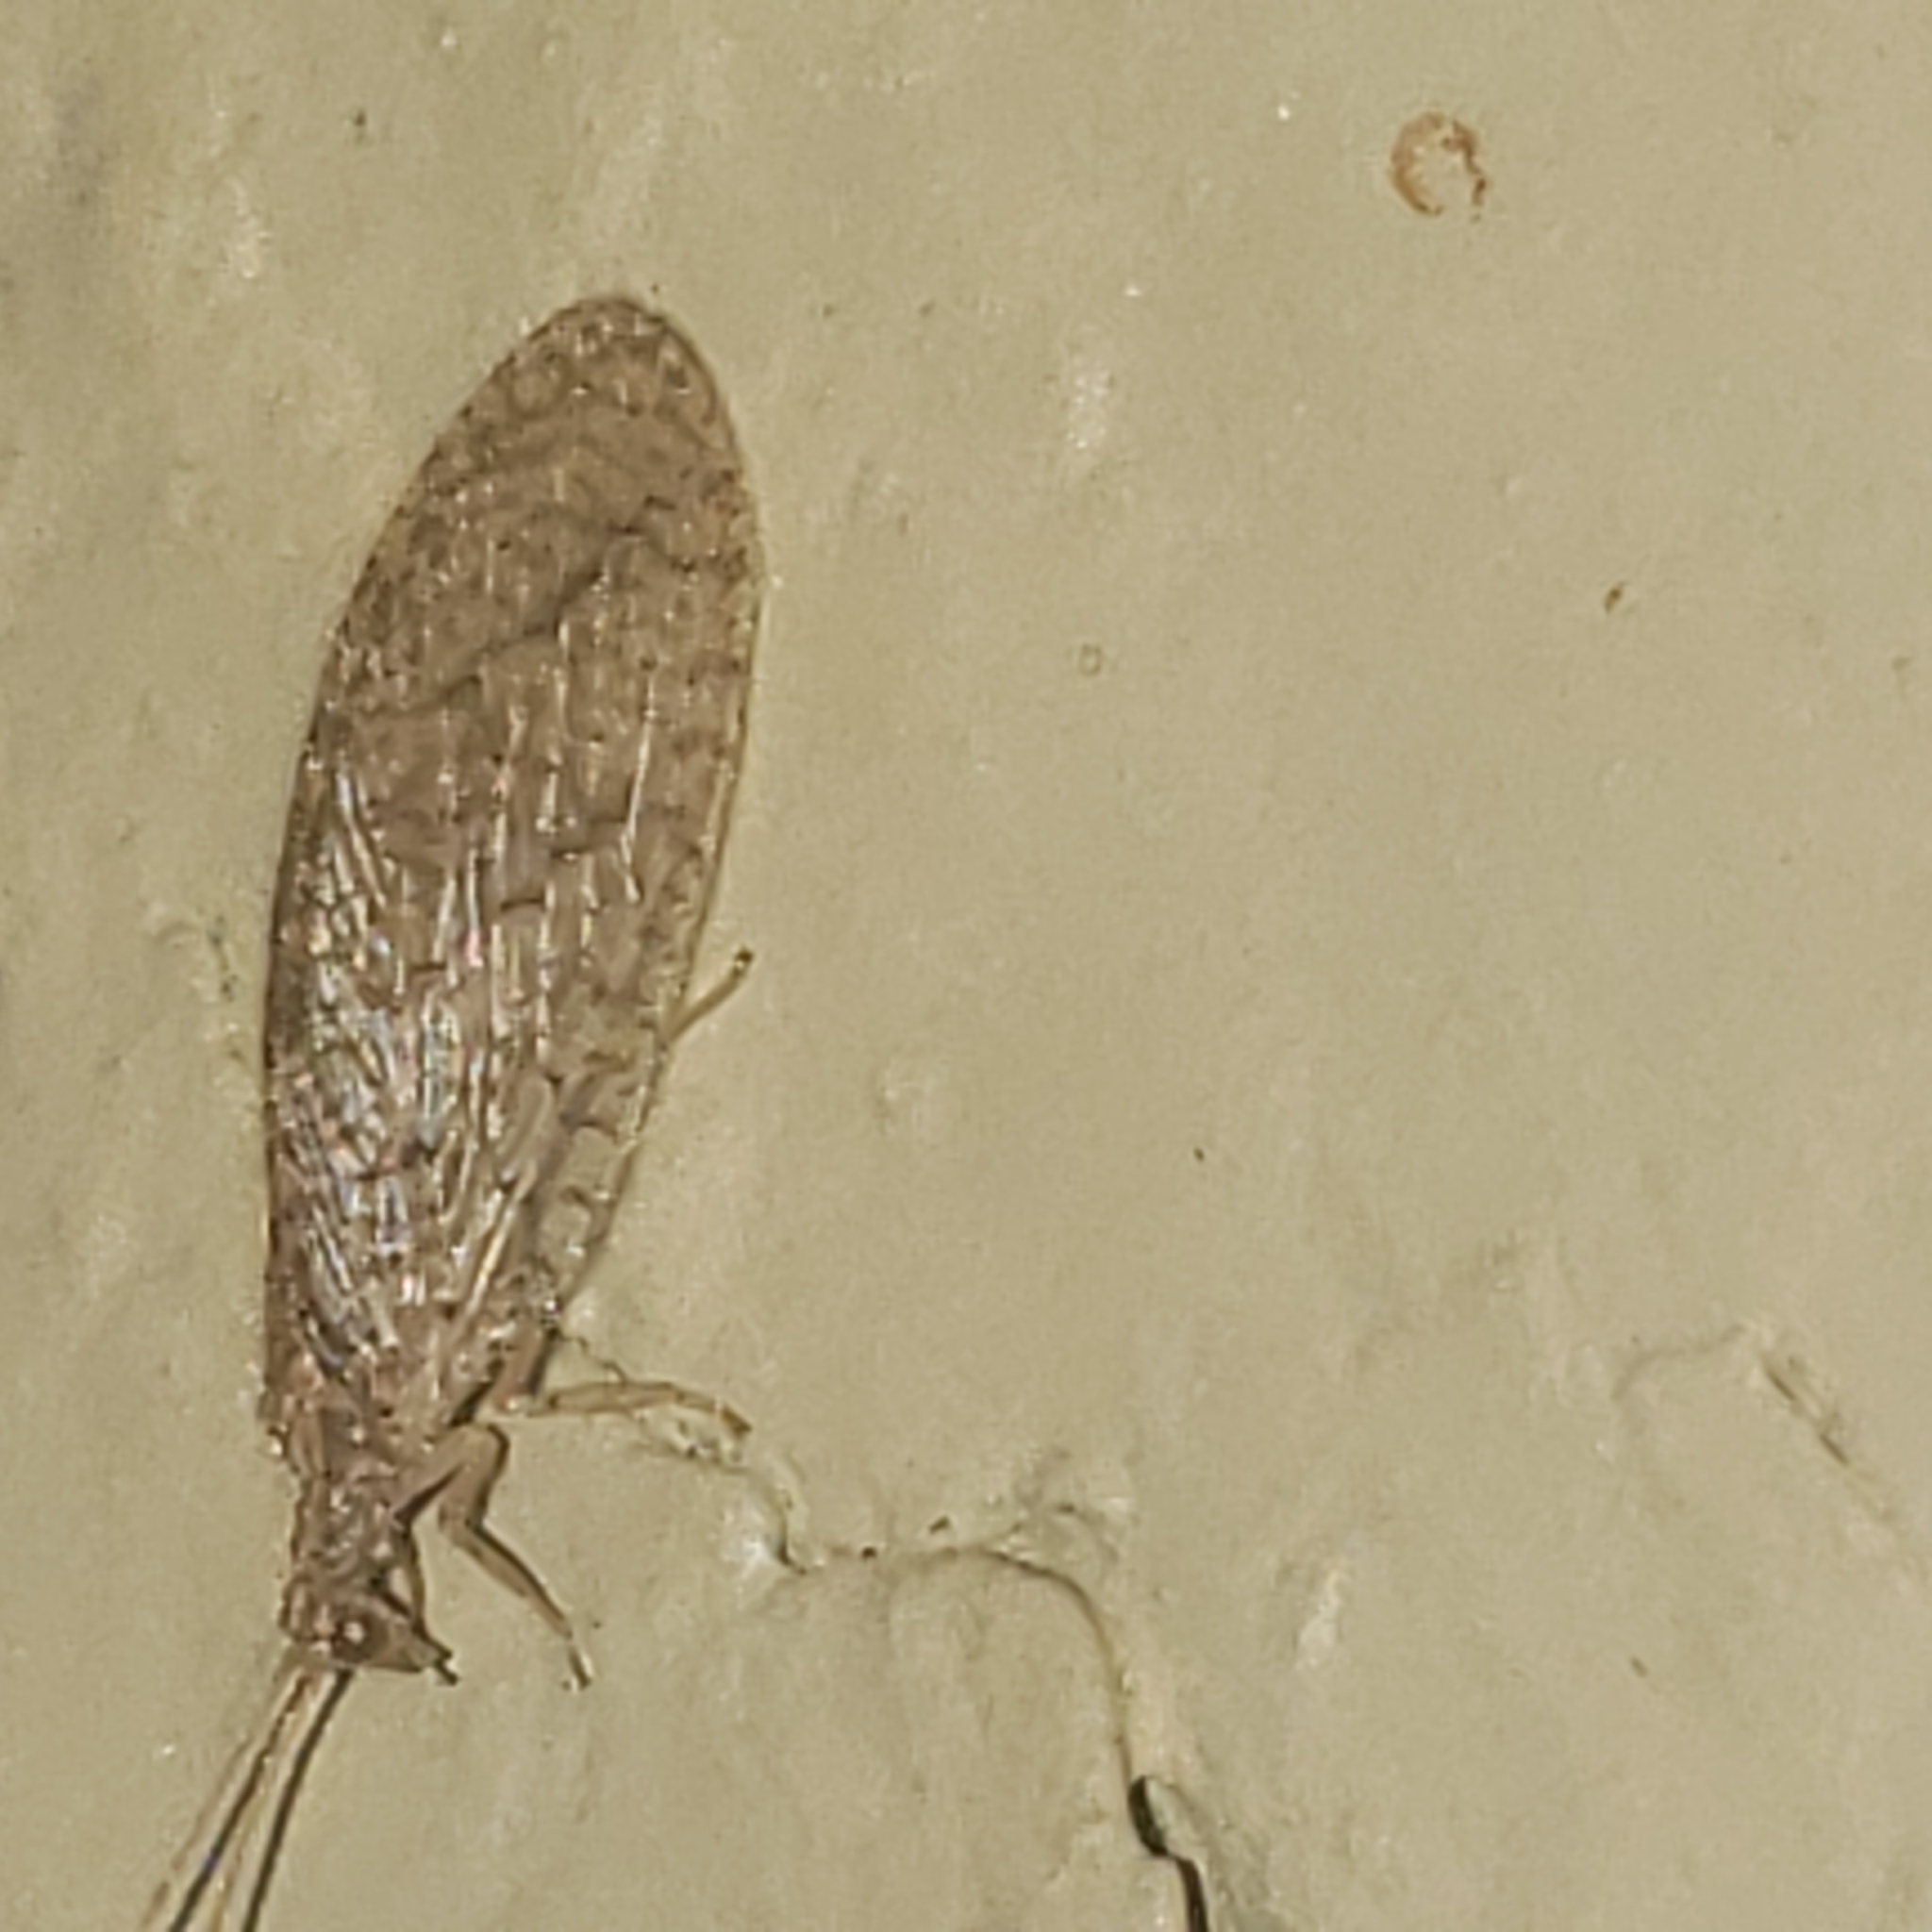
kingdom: Animalia
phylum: Arthropoda
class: Insecta
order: Neuroptera
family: Hemerobiidae
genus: Micromus
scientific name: Micromus posticus
